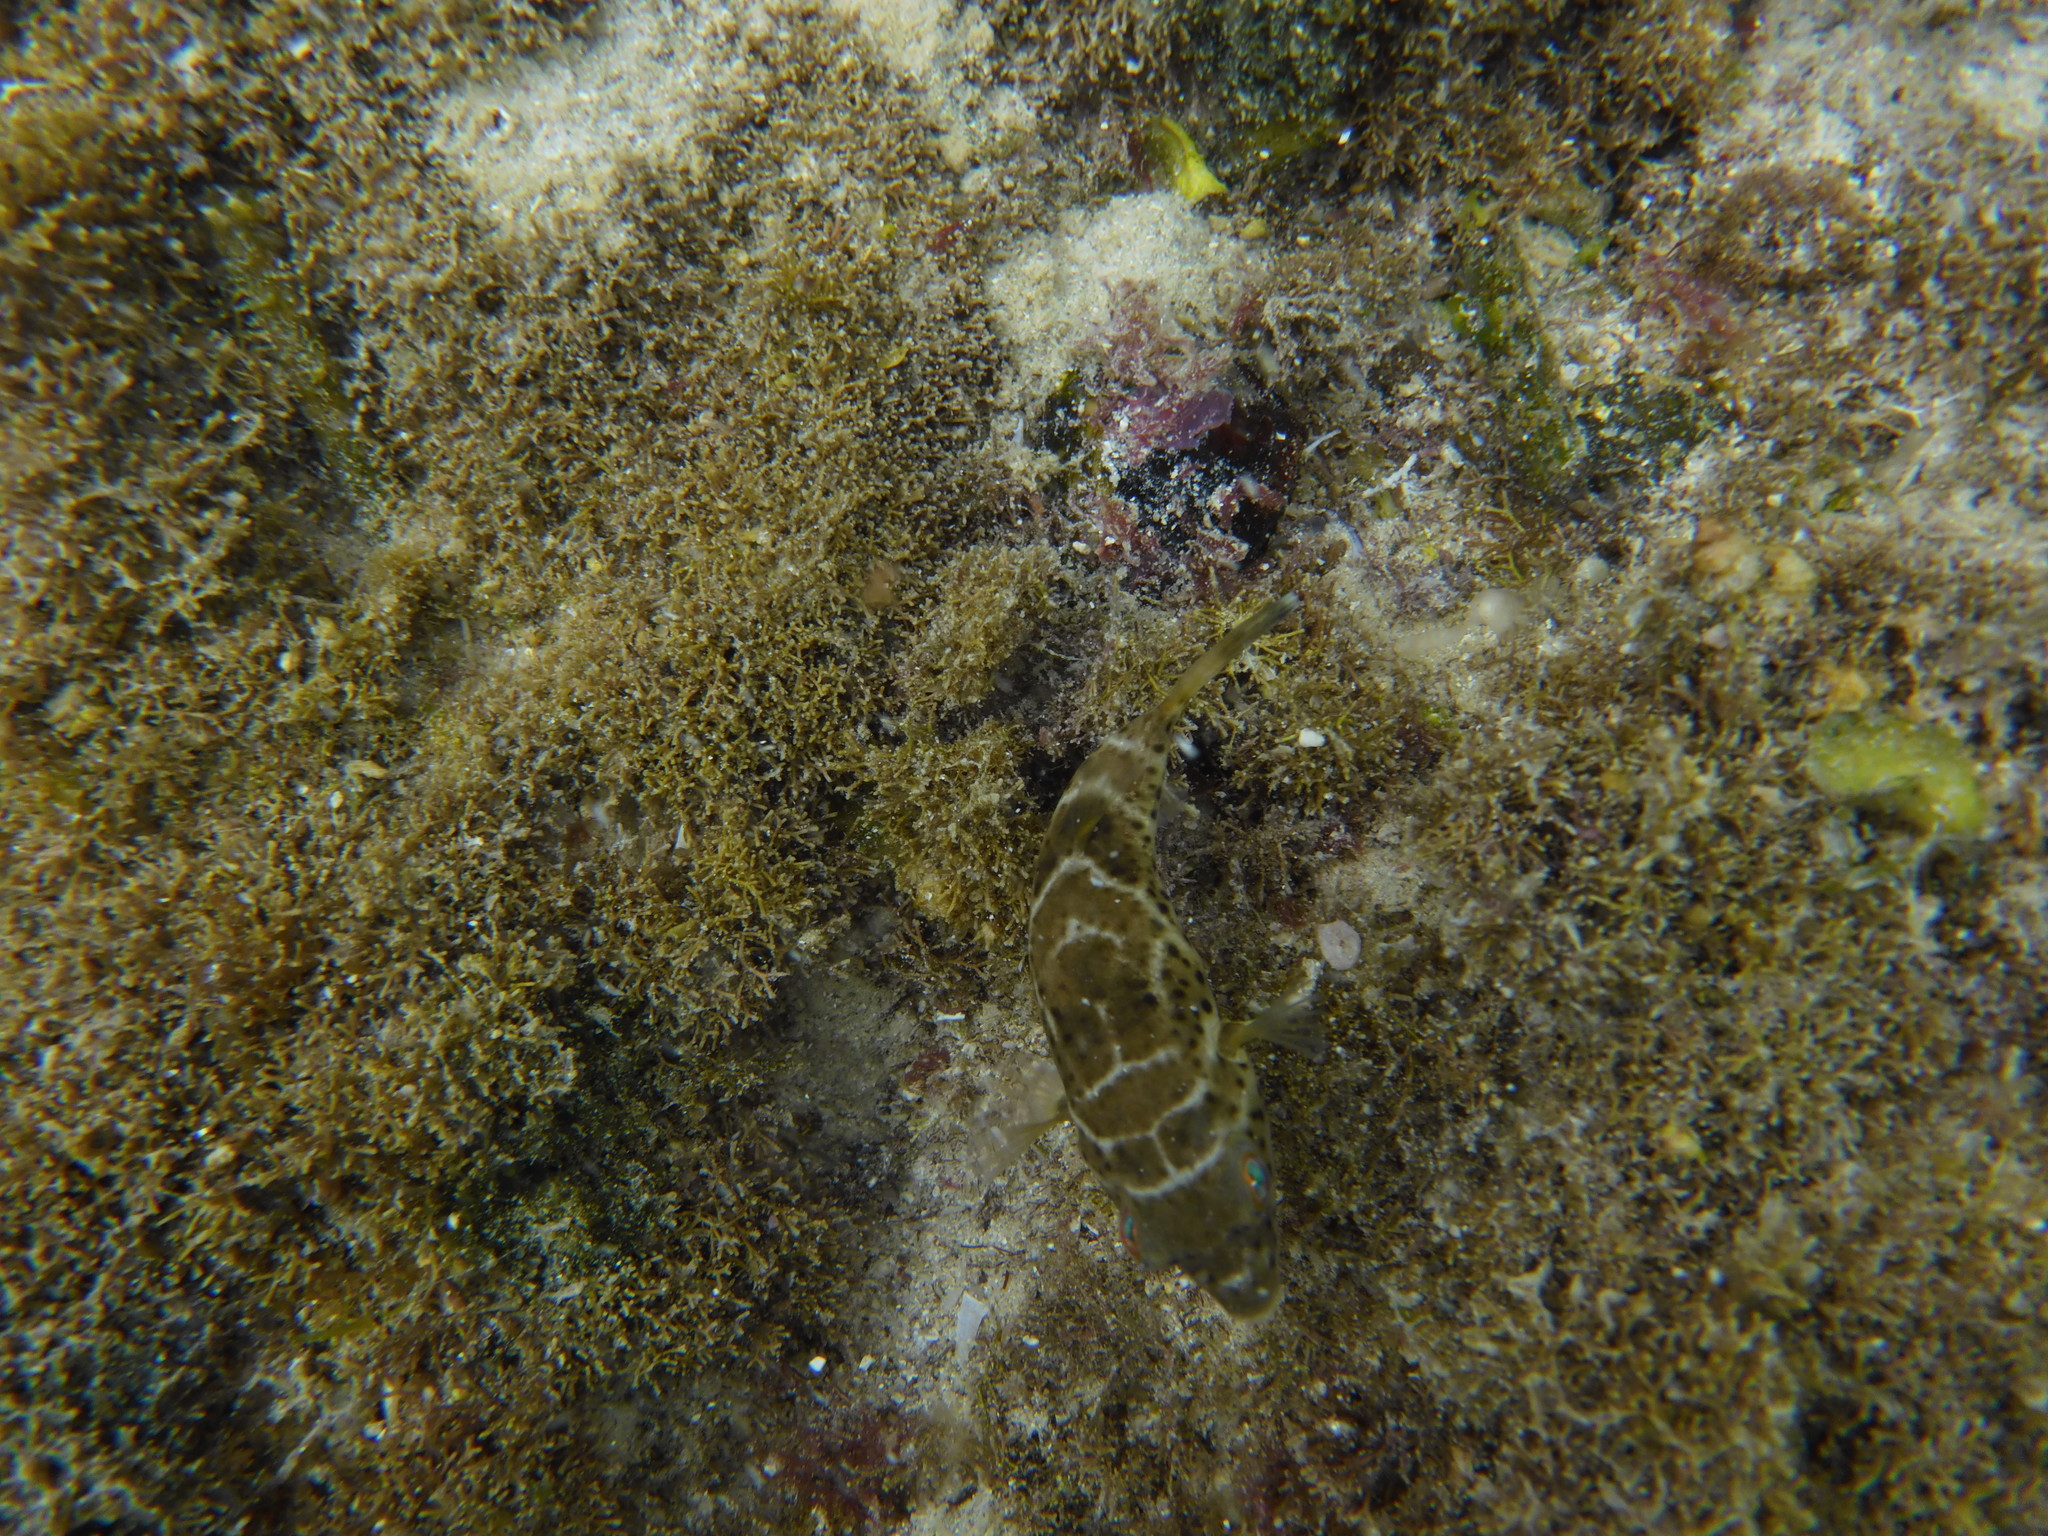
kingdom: Animalia
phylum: Chordata
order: Tetraodontiformes
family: Tetraodontidae
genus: Sphoeroides
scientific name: Sphoeroides annulatus
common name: Bullseye puffer
